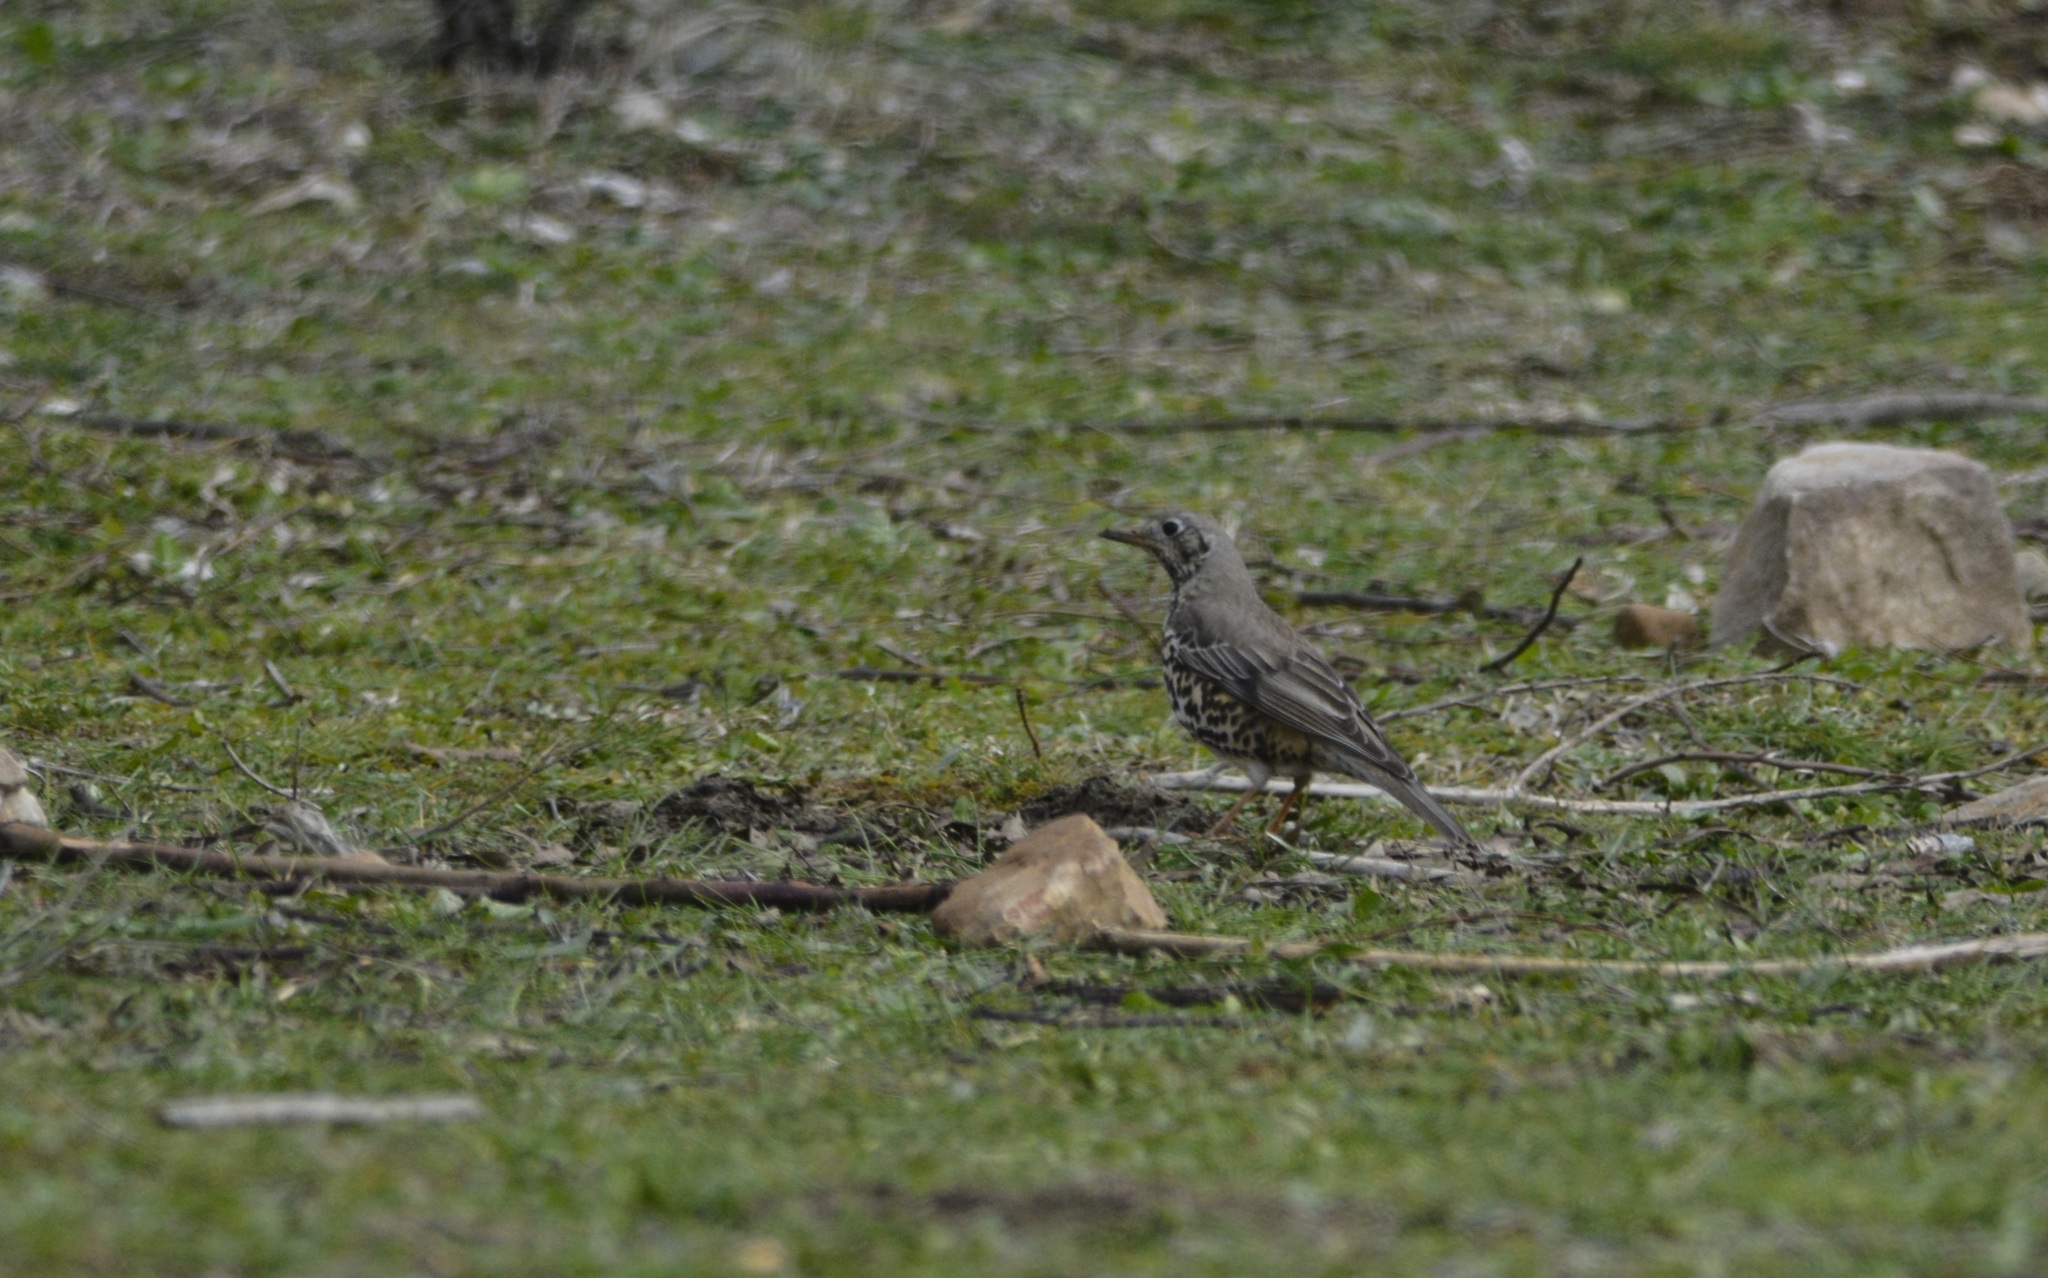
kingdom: Animalia
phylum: Chordata
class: Aves
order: Passeriformes
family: Turdidae
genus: Turdus
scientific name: Turdus viscivorus
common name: Mistle thrush
